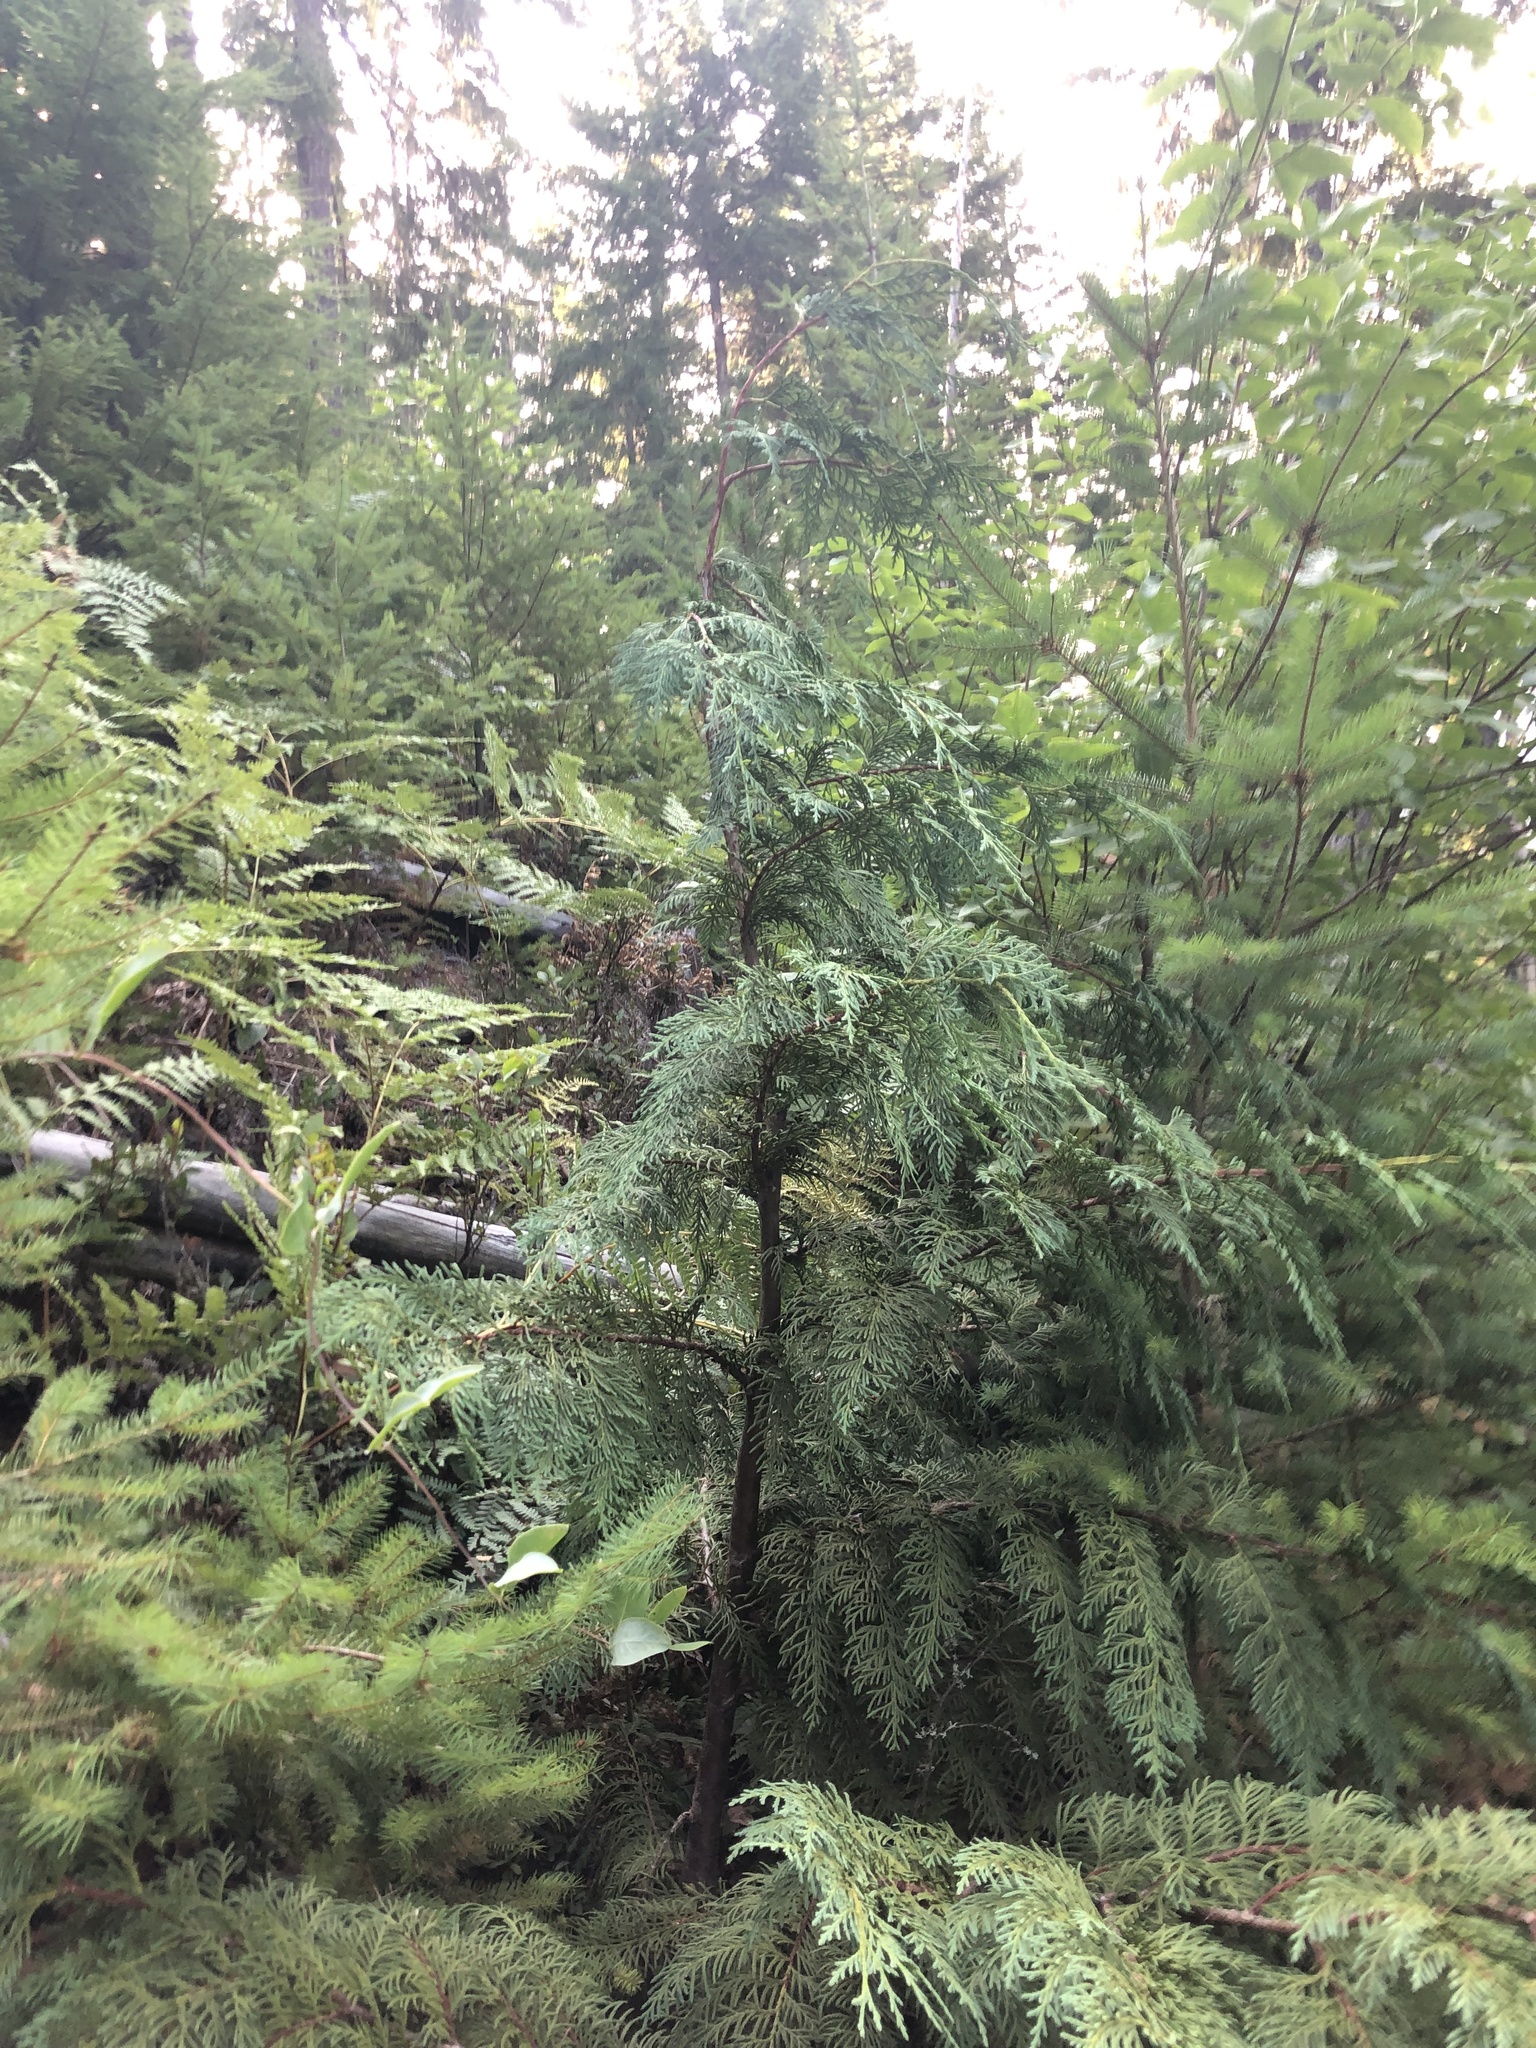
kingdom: Plantae
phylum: Tracheophyta
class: Pinopsida
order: Pinales
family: Cupressaceae
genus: Xanthocyparis
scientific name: Xanthocyparis nootkatensis
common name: Nootka cypress
